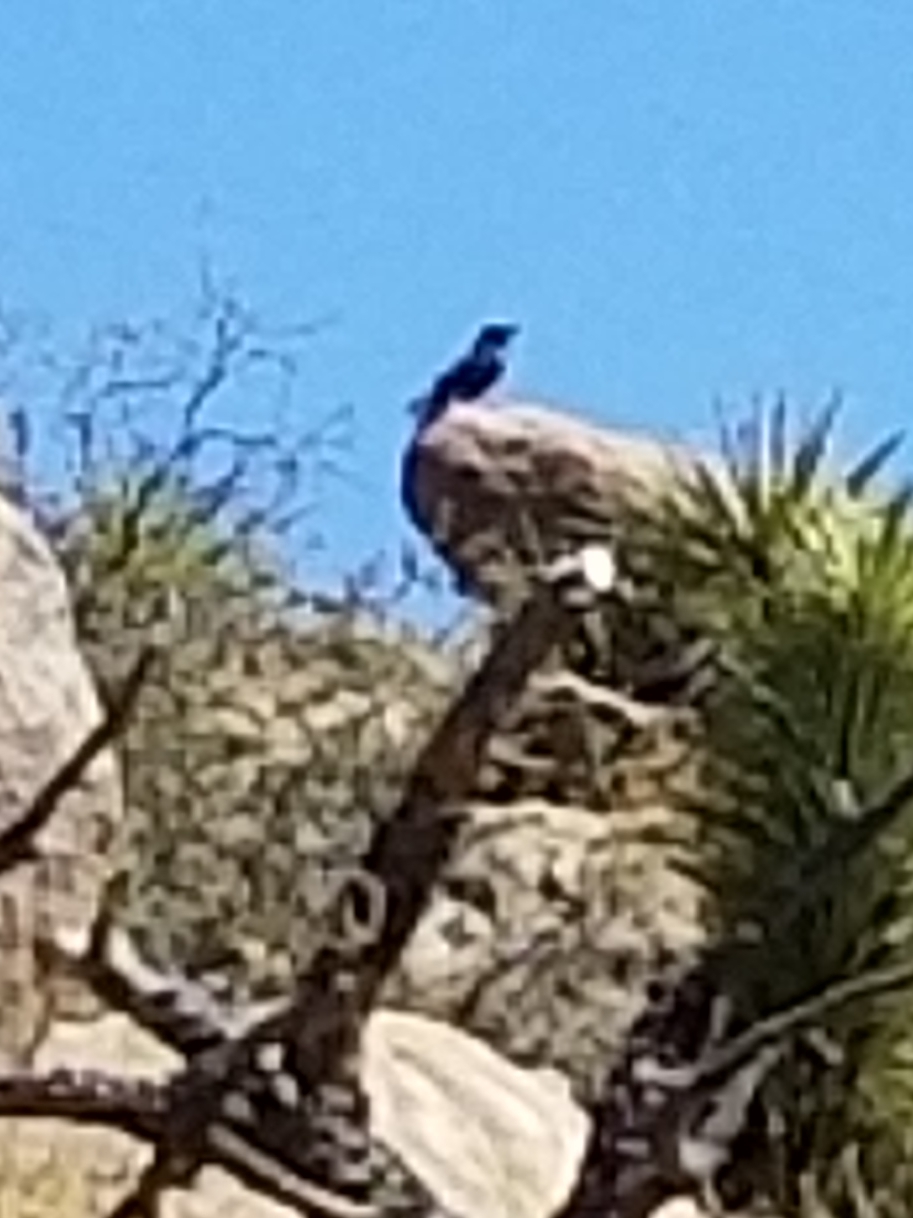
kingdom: Animalia
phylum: Chordata
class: Aves
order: Passeriformes
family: Corvidae
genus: Gymnorhinus
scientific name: Gymnorhinus cyanocephalus
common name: Pinyon jay
